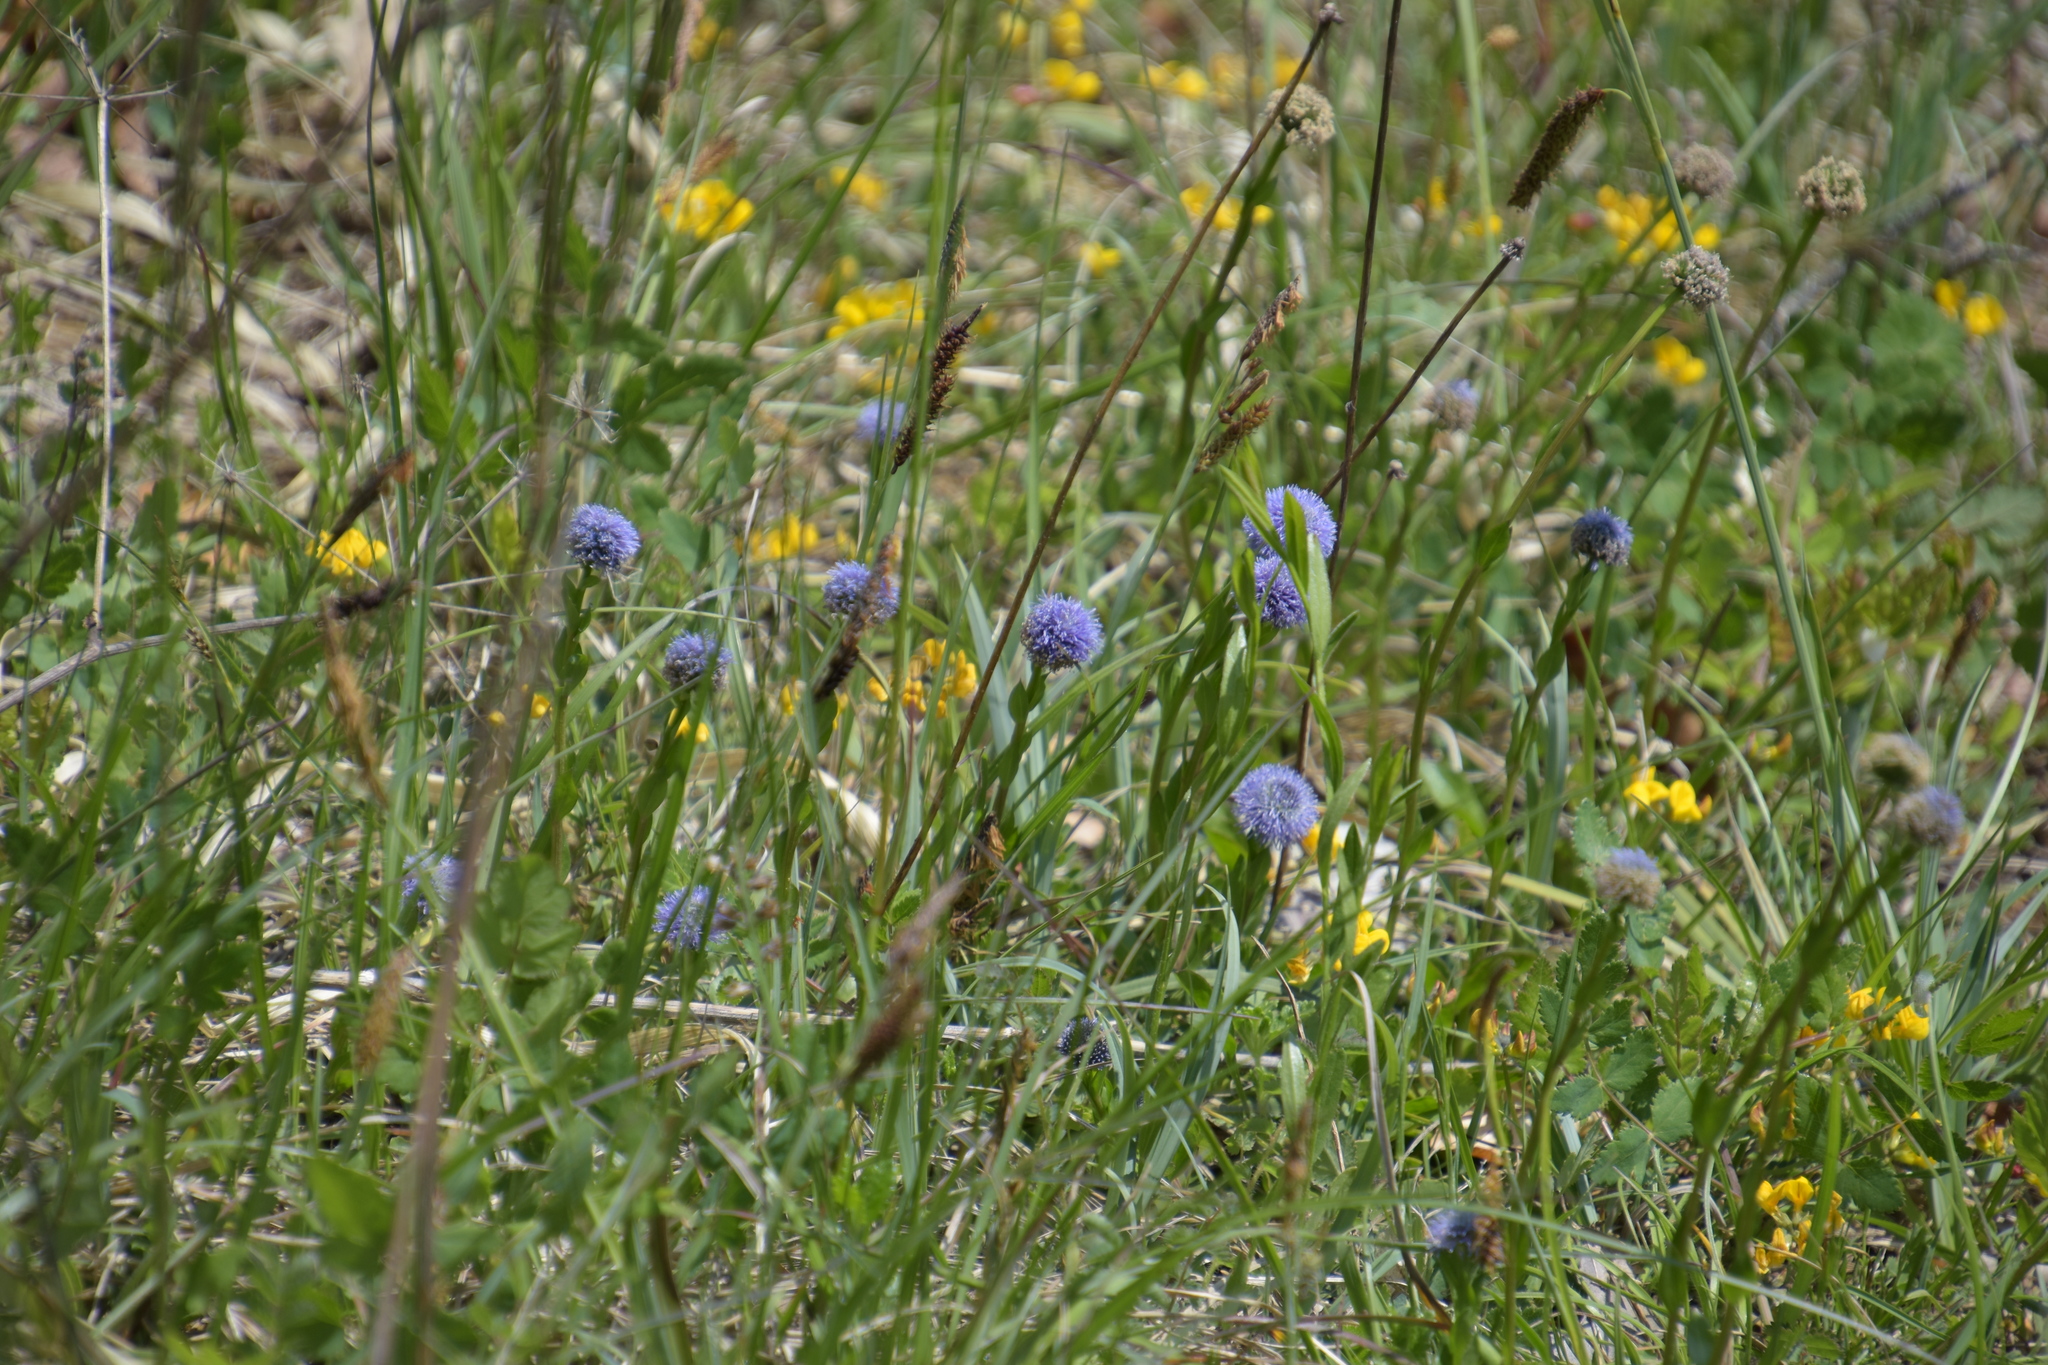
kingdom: Plantae
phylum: Tracheophyta
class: Magnoliopsida
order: Lamiales
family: Plantaginaceae
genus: Globularia
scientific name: Globularia bisnagarica
